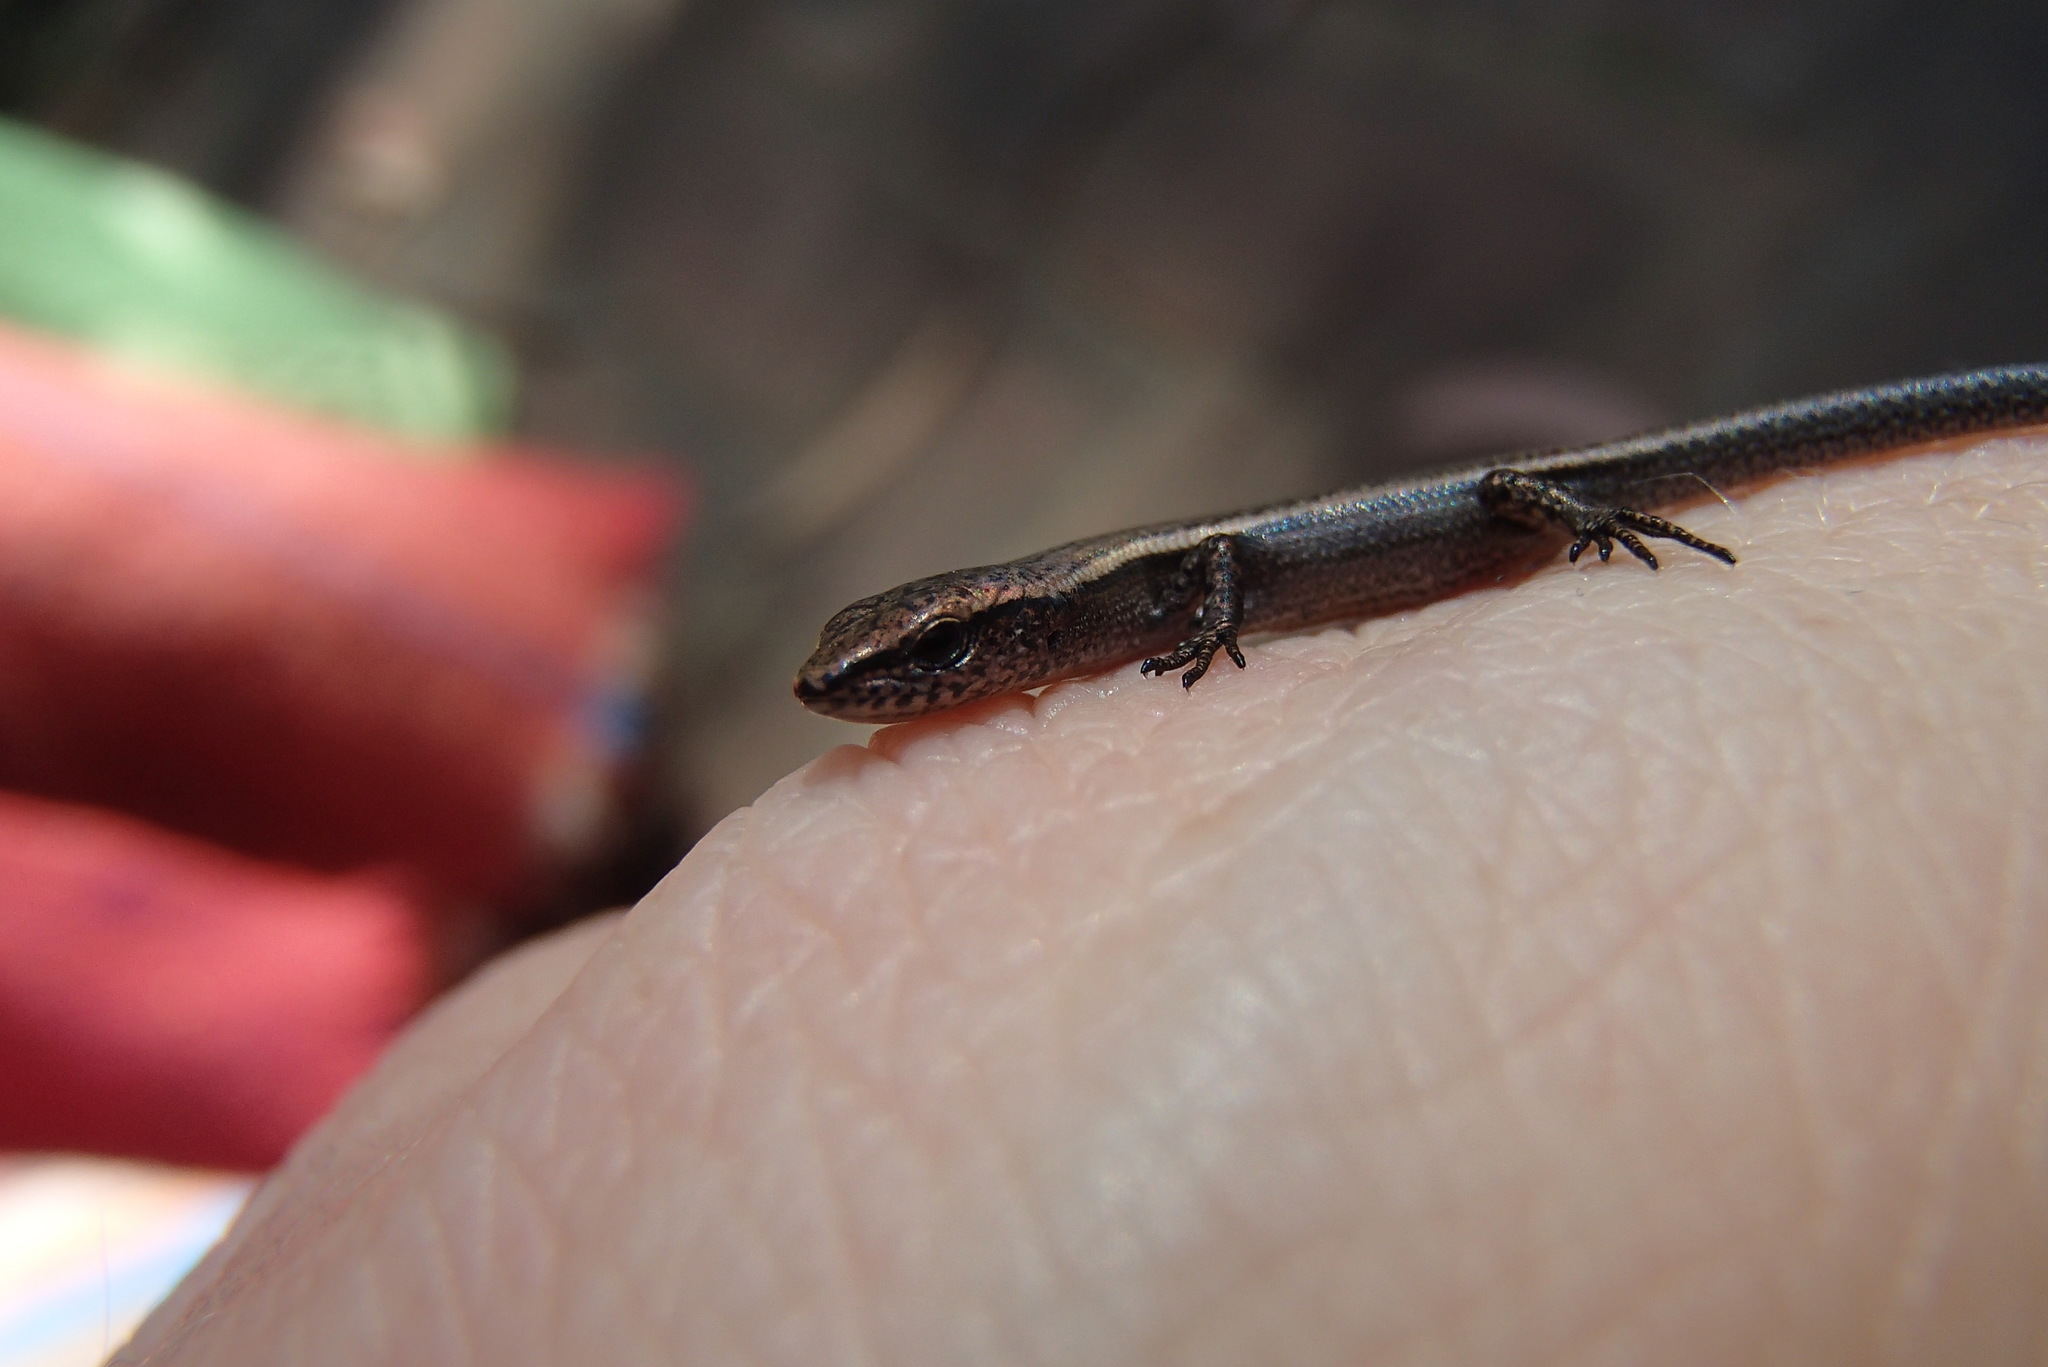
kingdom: Animalia
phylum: Chordata
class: Squamata
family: Scincidae
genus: Lampropholis
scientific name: Lampropholis delicata
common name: Plague skink
